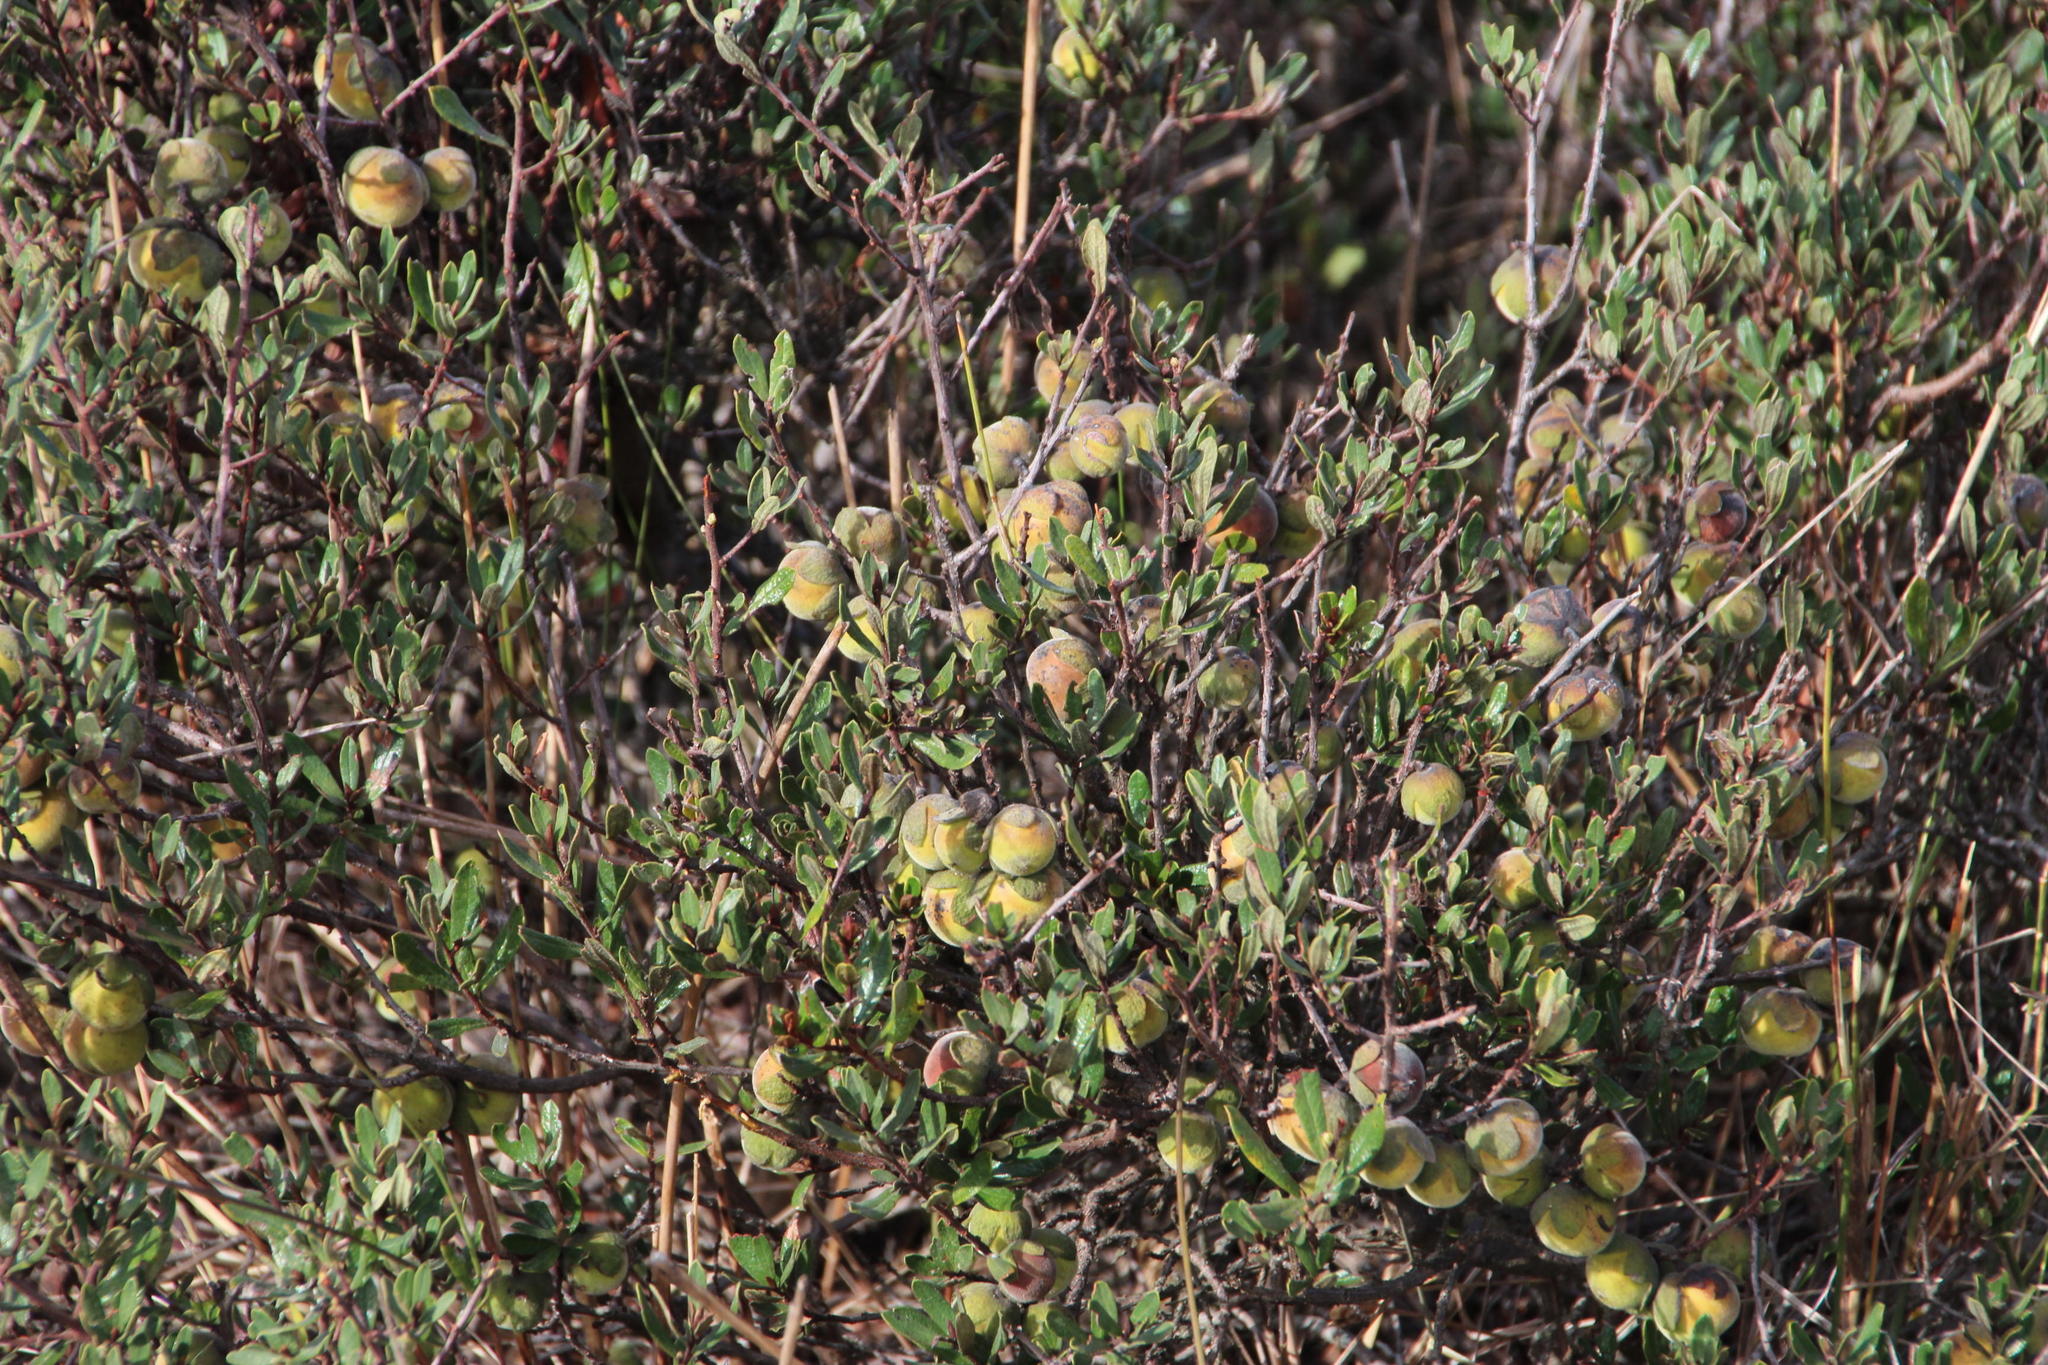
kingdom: Plantae
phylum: Tracheophyta
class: Magnoliopsida
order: Ericales
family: Ebenaceae
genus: Diospyros
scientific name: Diospyros pubescens
